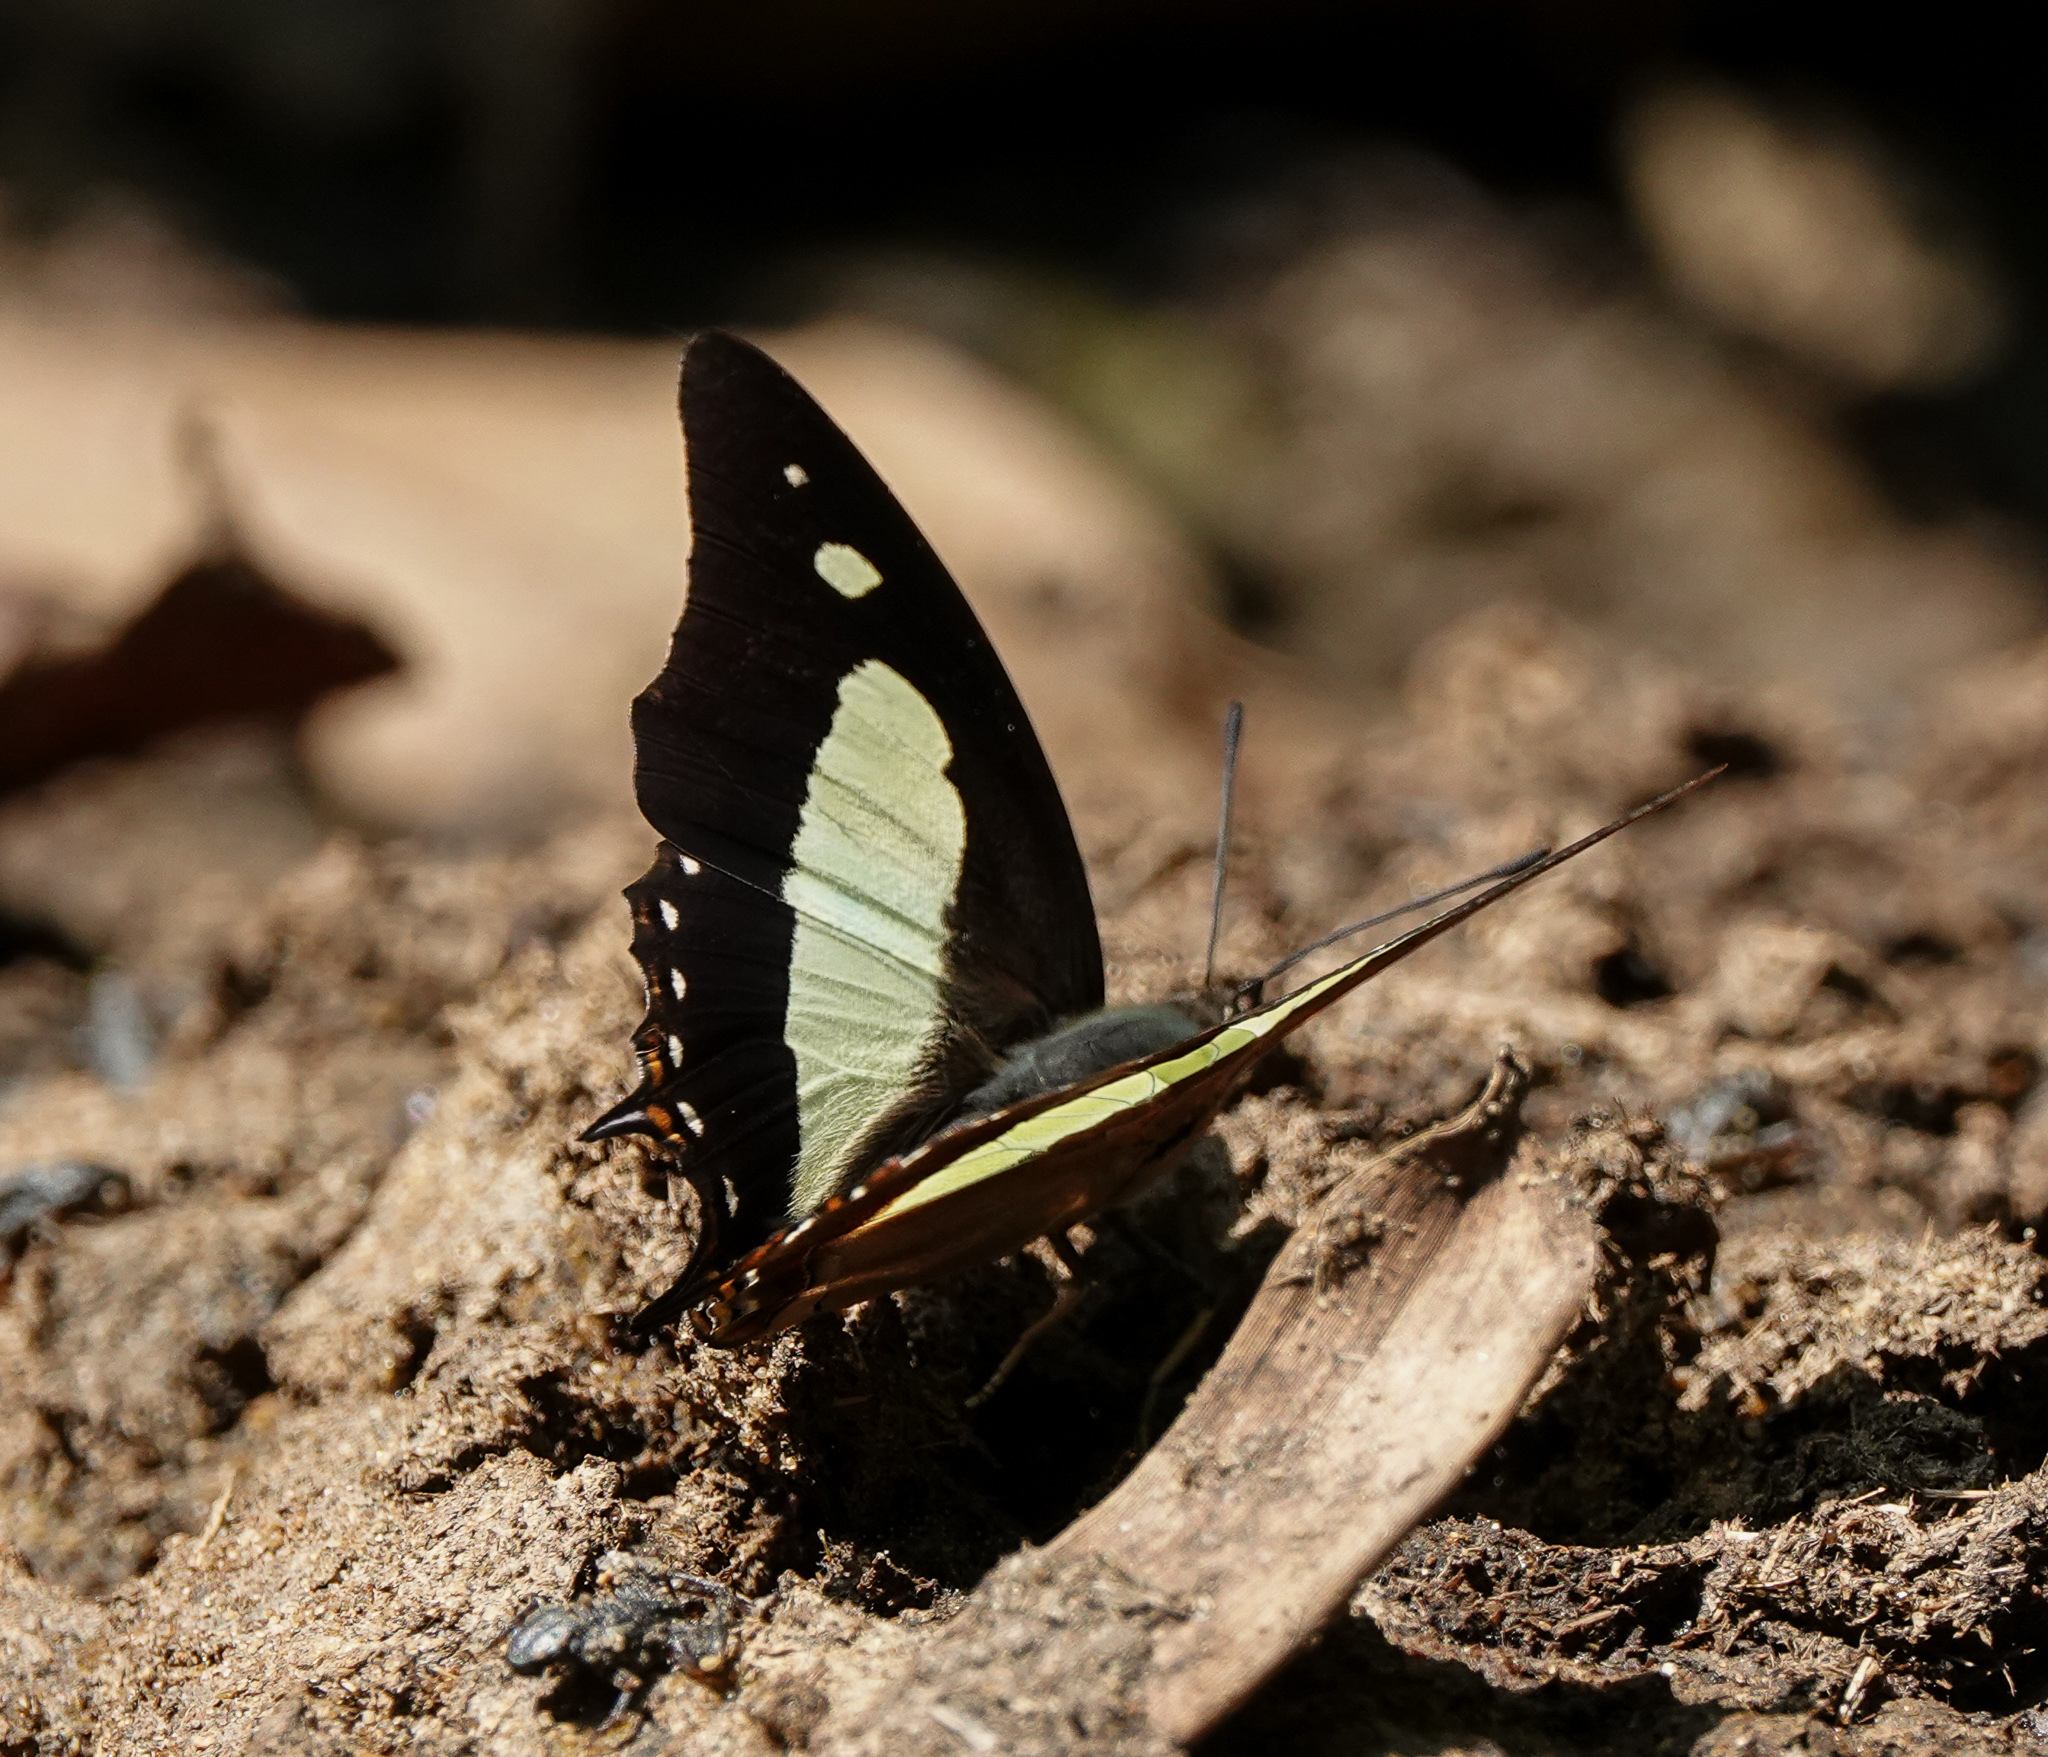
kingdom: Animalia
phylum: Arthropoda
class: Insecta
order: Lepidoptera
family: Nymphalidae
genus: Polyura
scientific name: Polyura
